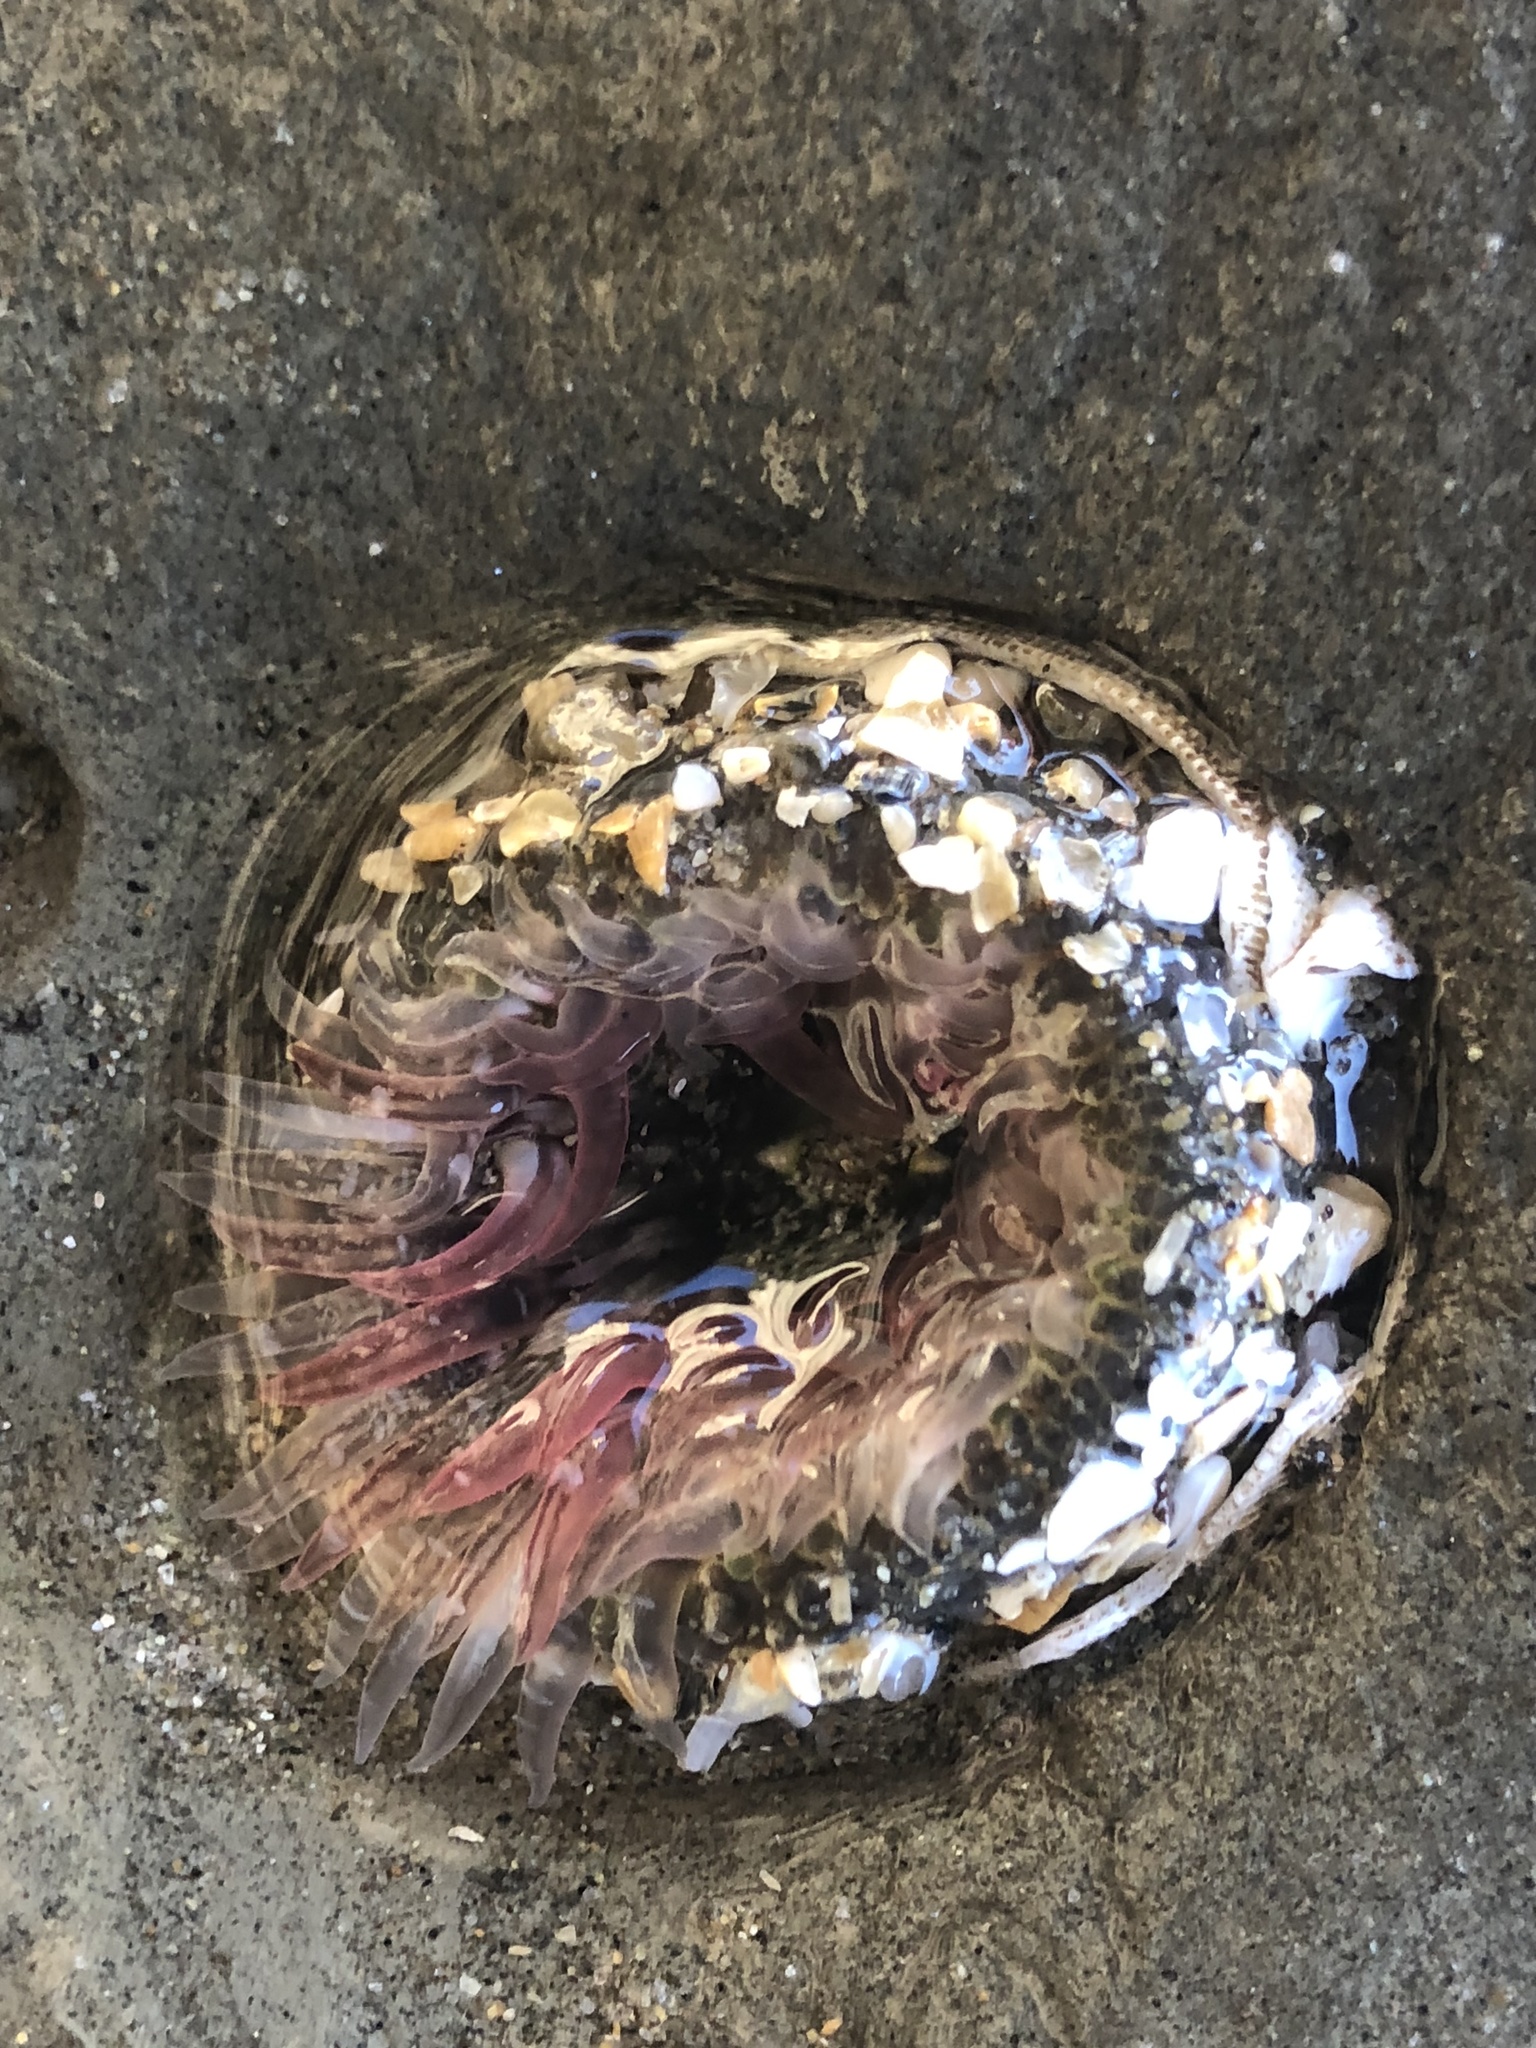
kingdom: Animalia
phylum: Cnidaria
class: Anthozoa
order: Actiniaria
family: Actiniidae
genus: Anthopleura
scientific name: Anthopleura elegantissima
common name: Clonal anemone
